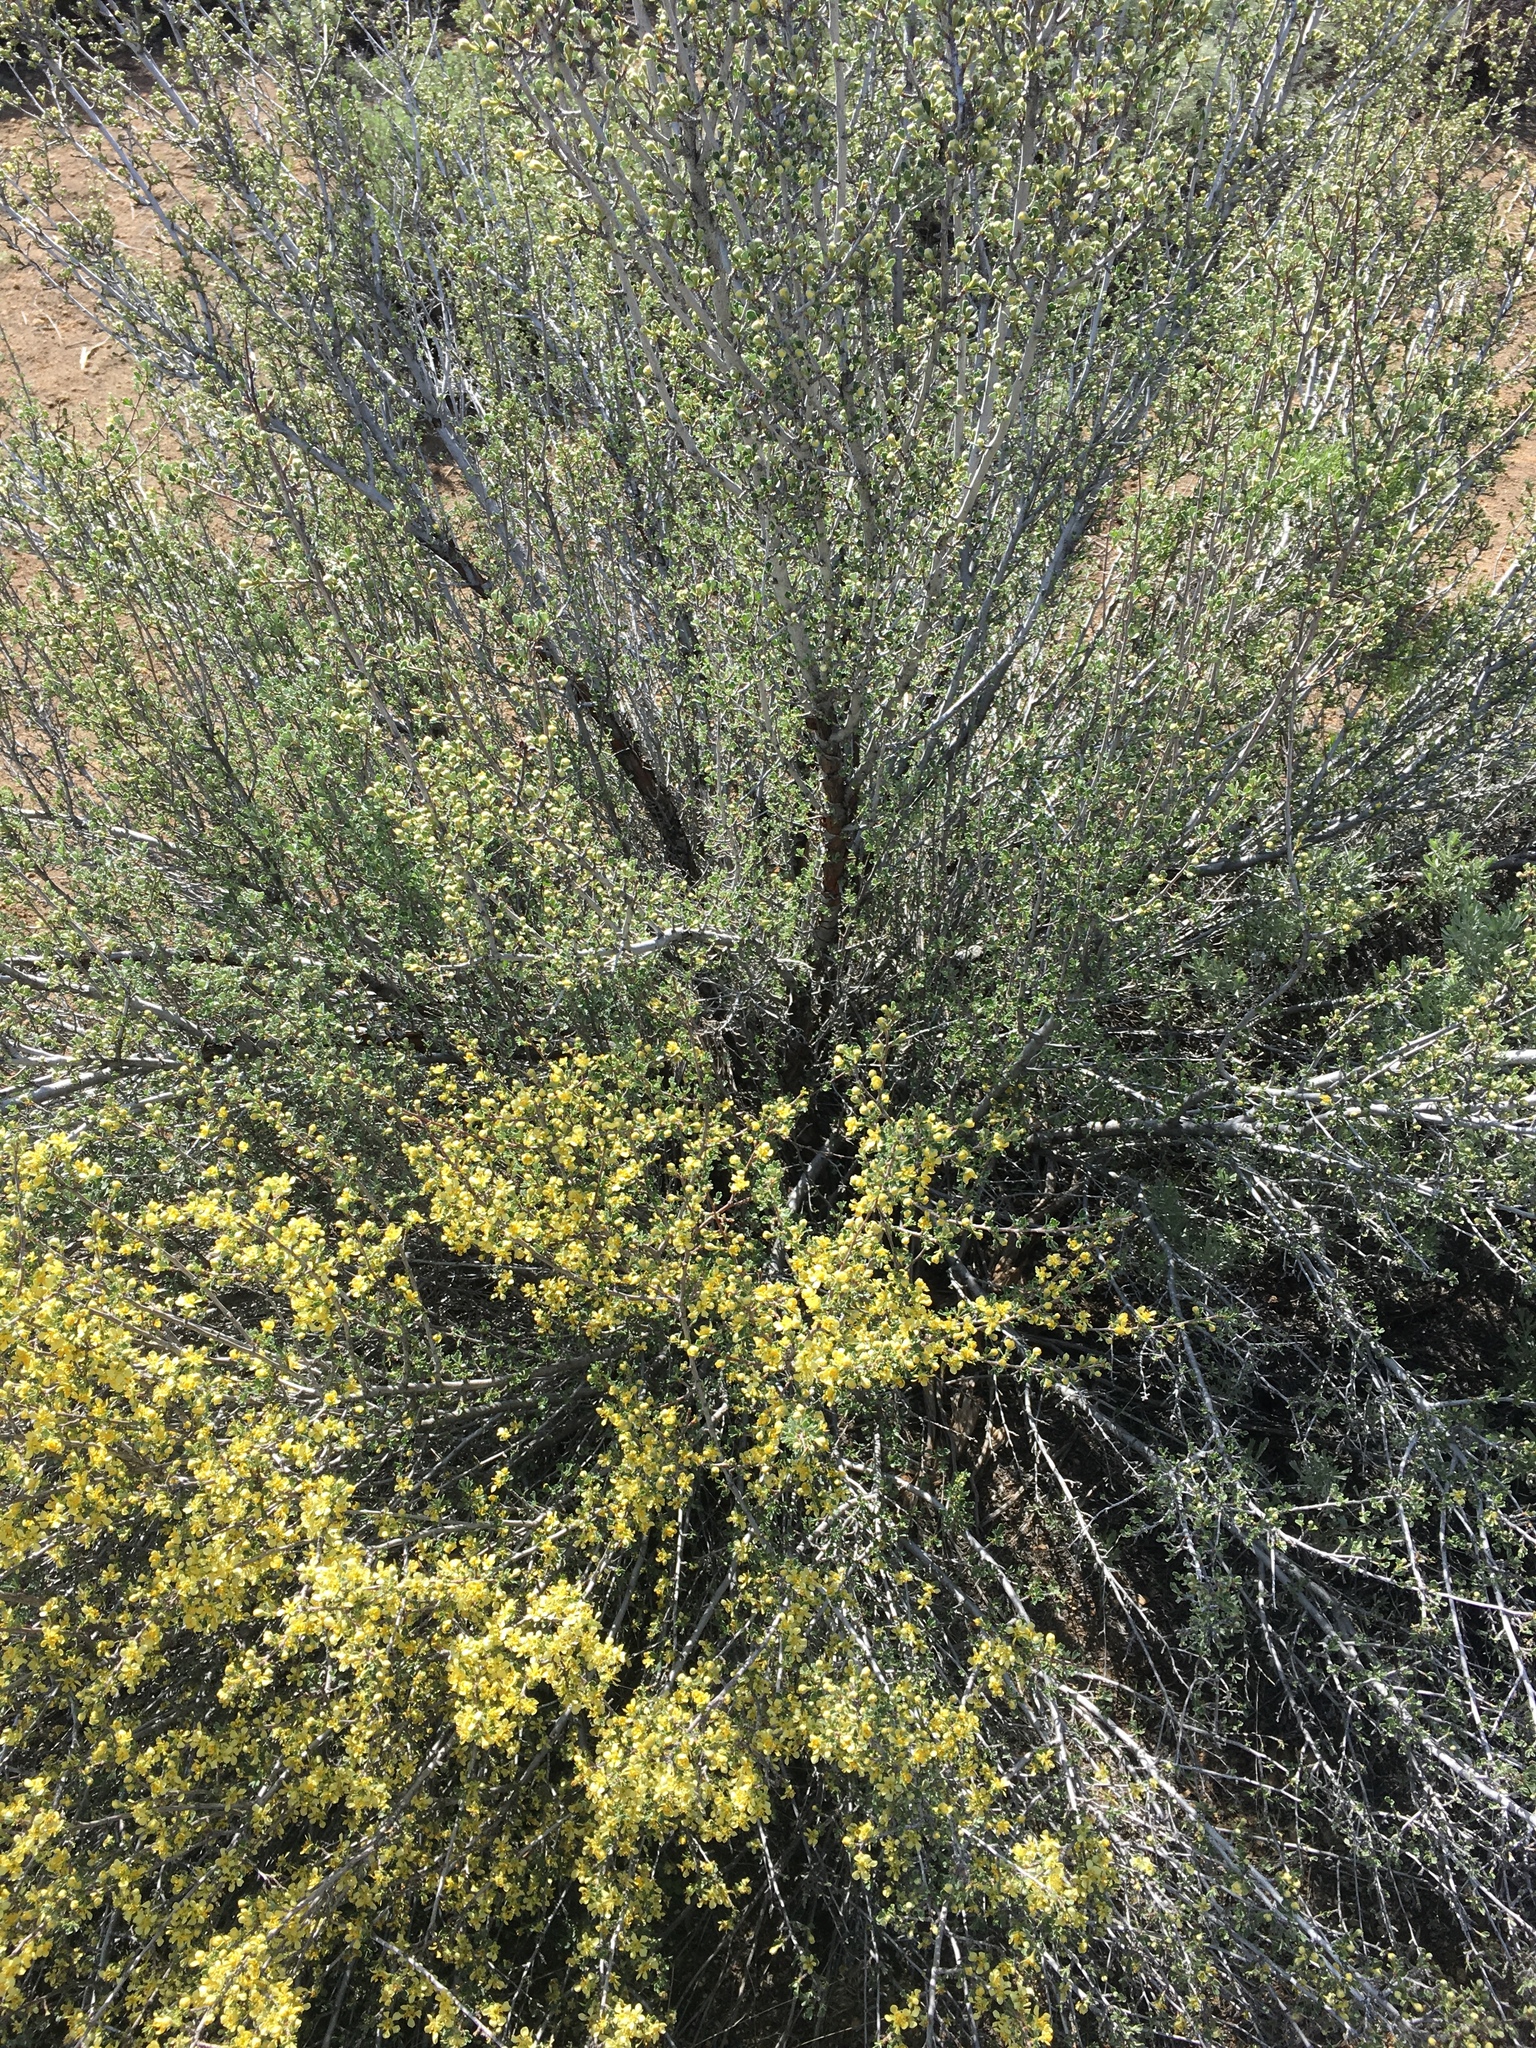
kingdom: Plantae
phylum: Tracheophyta
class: Magnoliopsida
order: Rosales
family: Rosaceae
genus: Purshia
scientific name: Purshia tridentata
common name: Antelope bitterbrush
